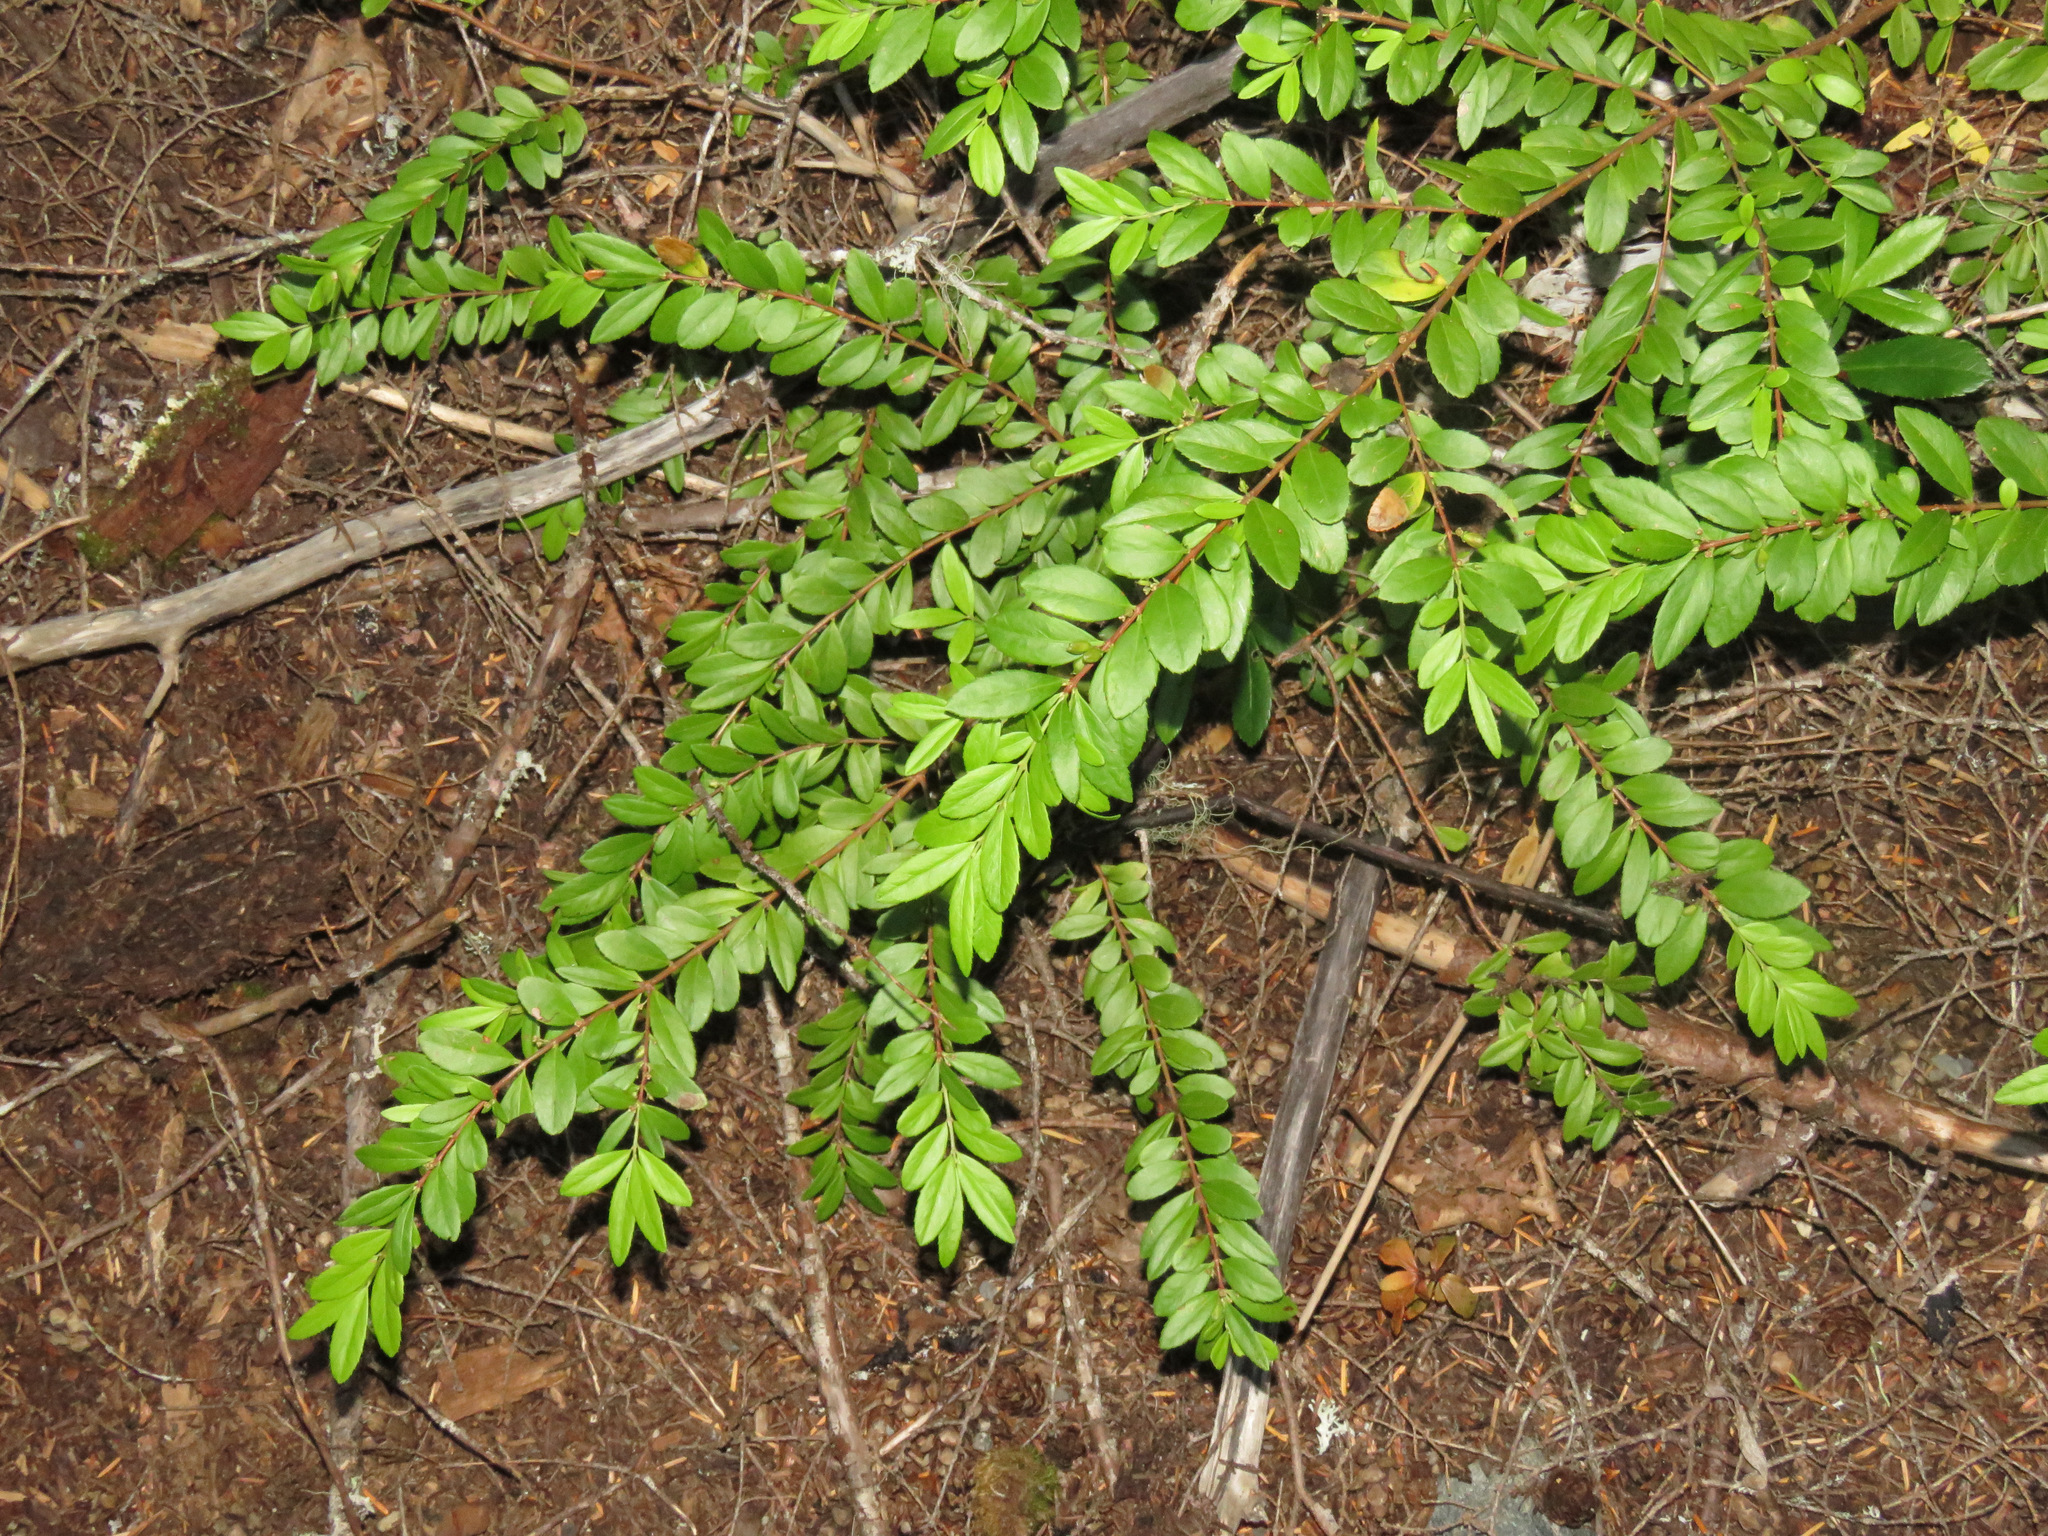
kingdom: Plantae
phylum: Tracheophyta
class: Magnoliopsida
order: Celastrales
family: Celastraceae
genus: Paxistima
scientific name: Paxistima myrsinites
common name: Mountain-lover
